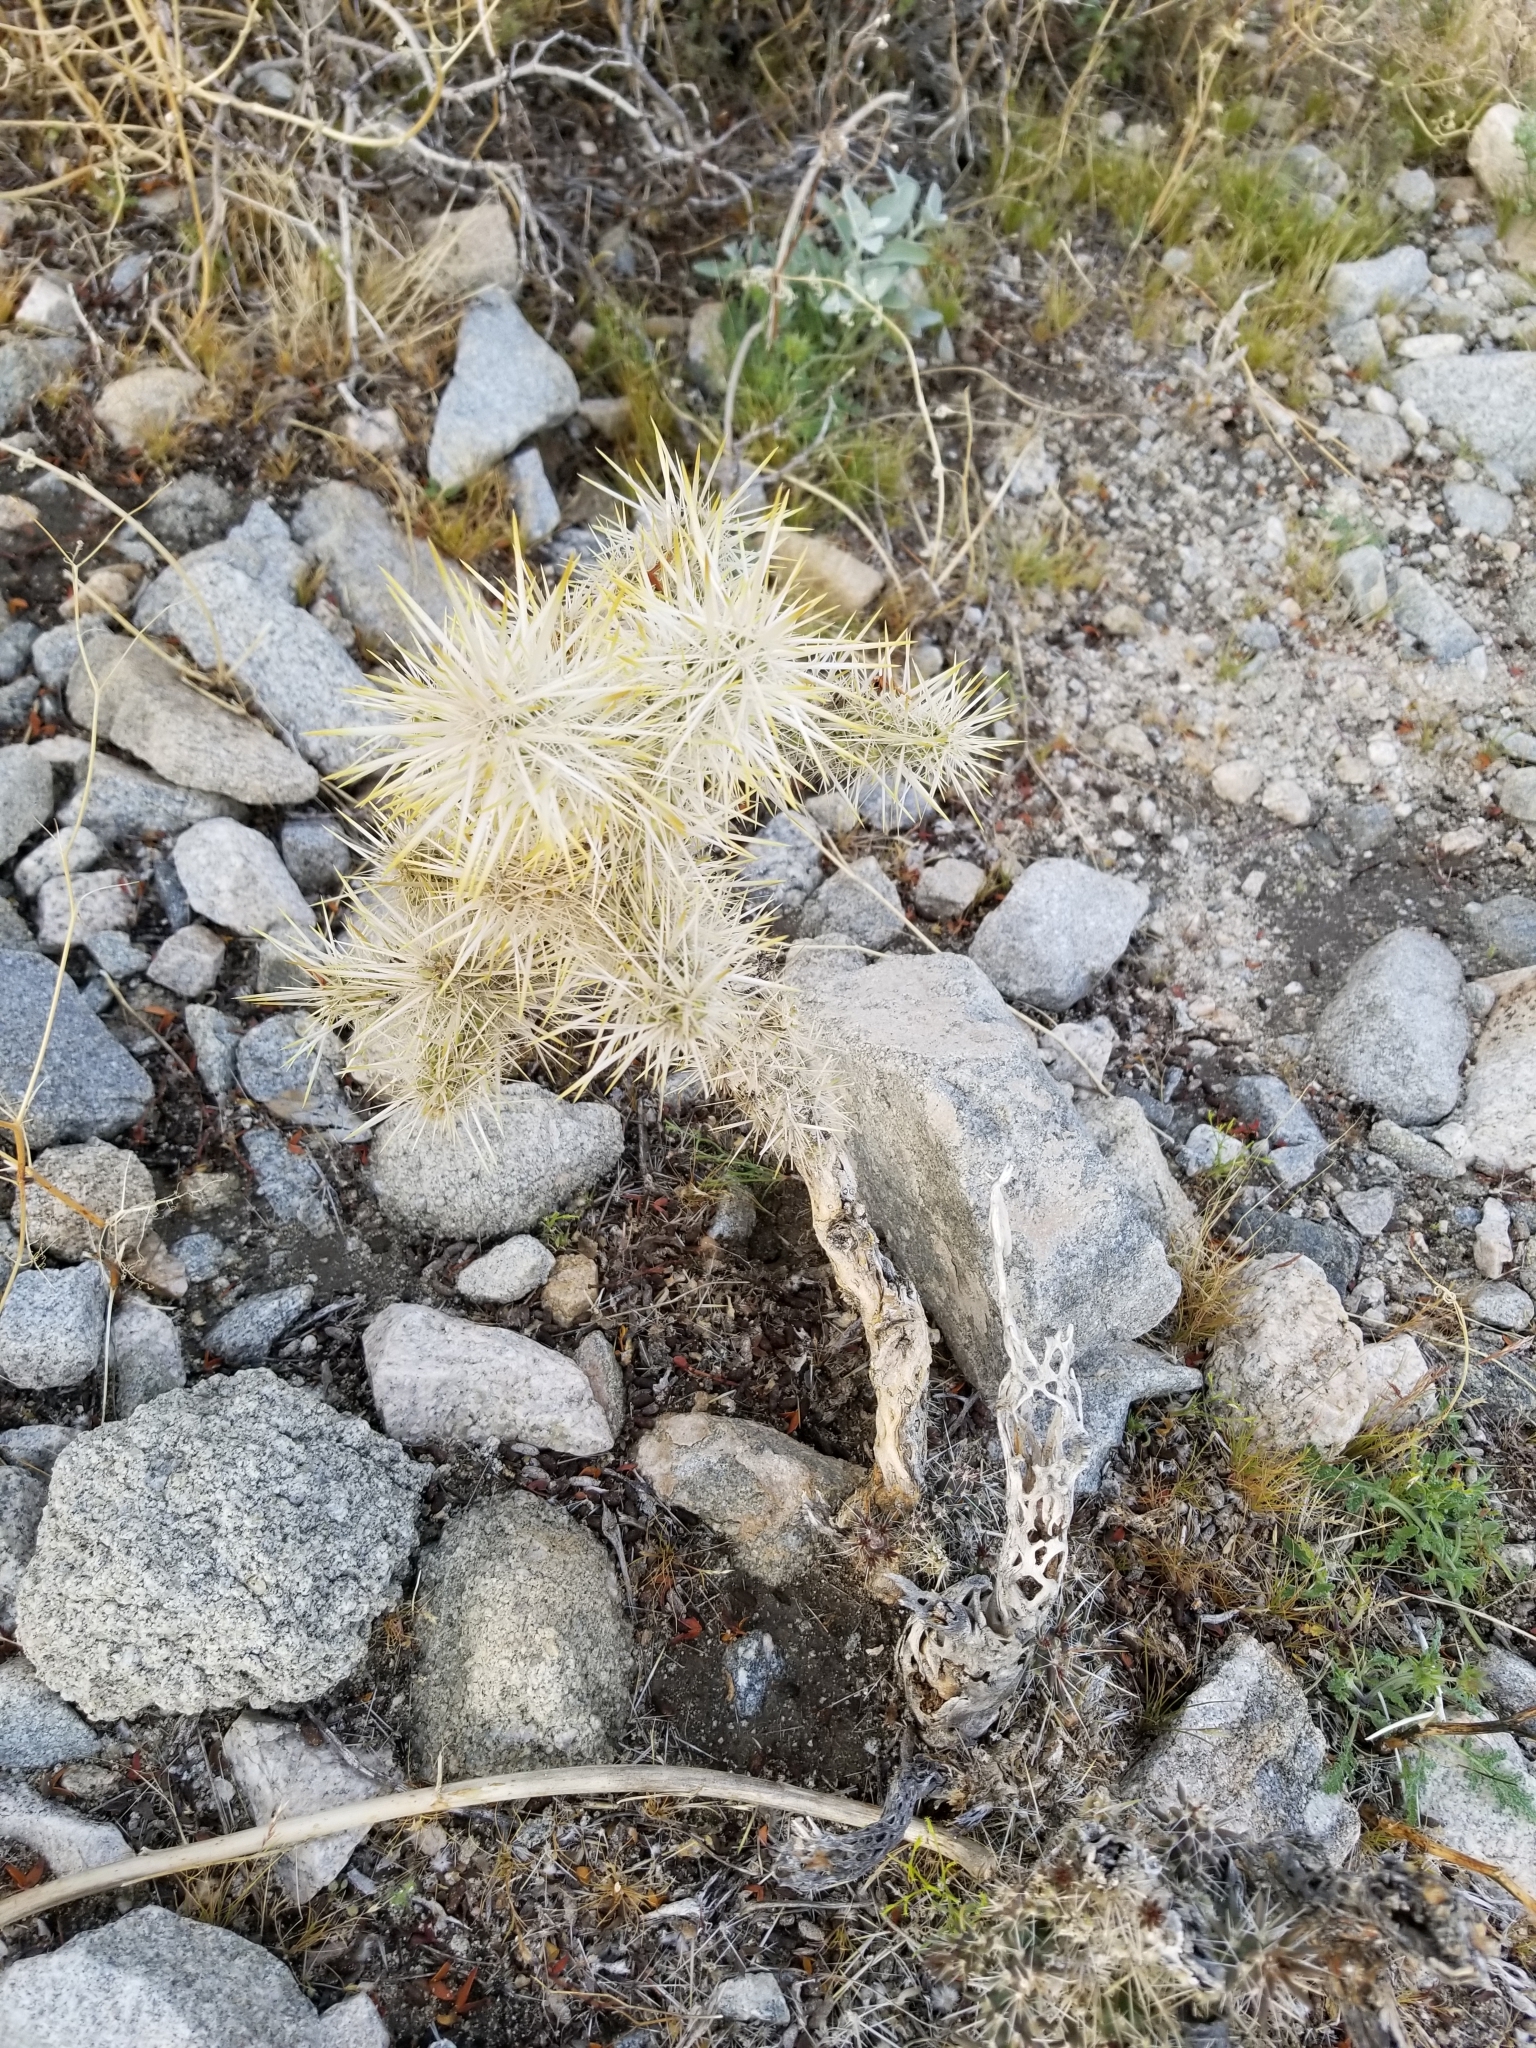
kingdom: Plantae
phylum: Tracheophyta
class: Magnoliopsida
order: Caryophyllales
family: Cactaceae
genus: Cylindropuntia
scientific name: Cylindropuntia echinocarpa
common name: Ground cholla
